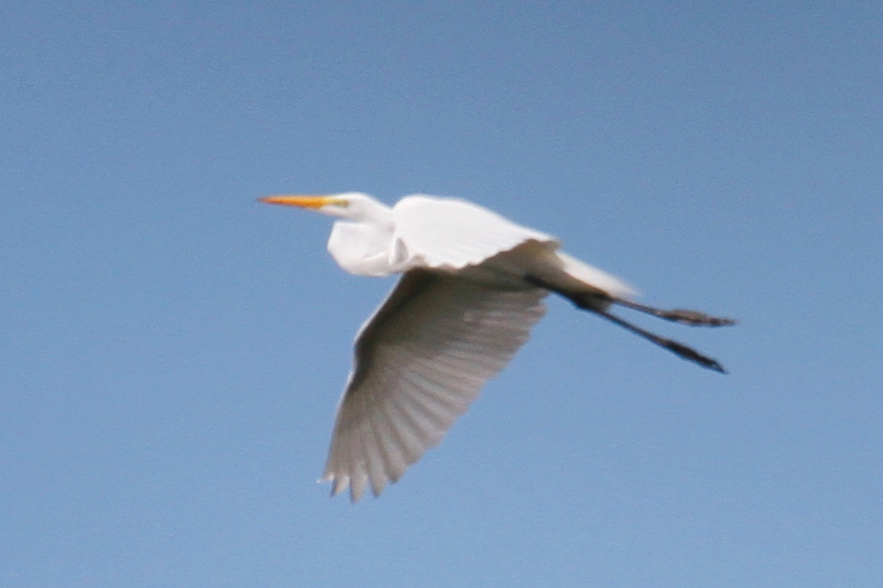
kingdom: Animalia
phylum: Chordata
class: Aves
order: Pelecaniformes
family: Ardeidae
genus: Ardea
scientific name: Ardea alba
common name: Great egret
